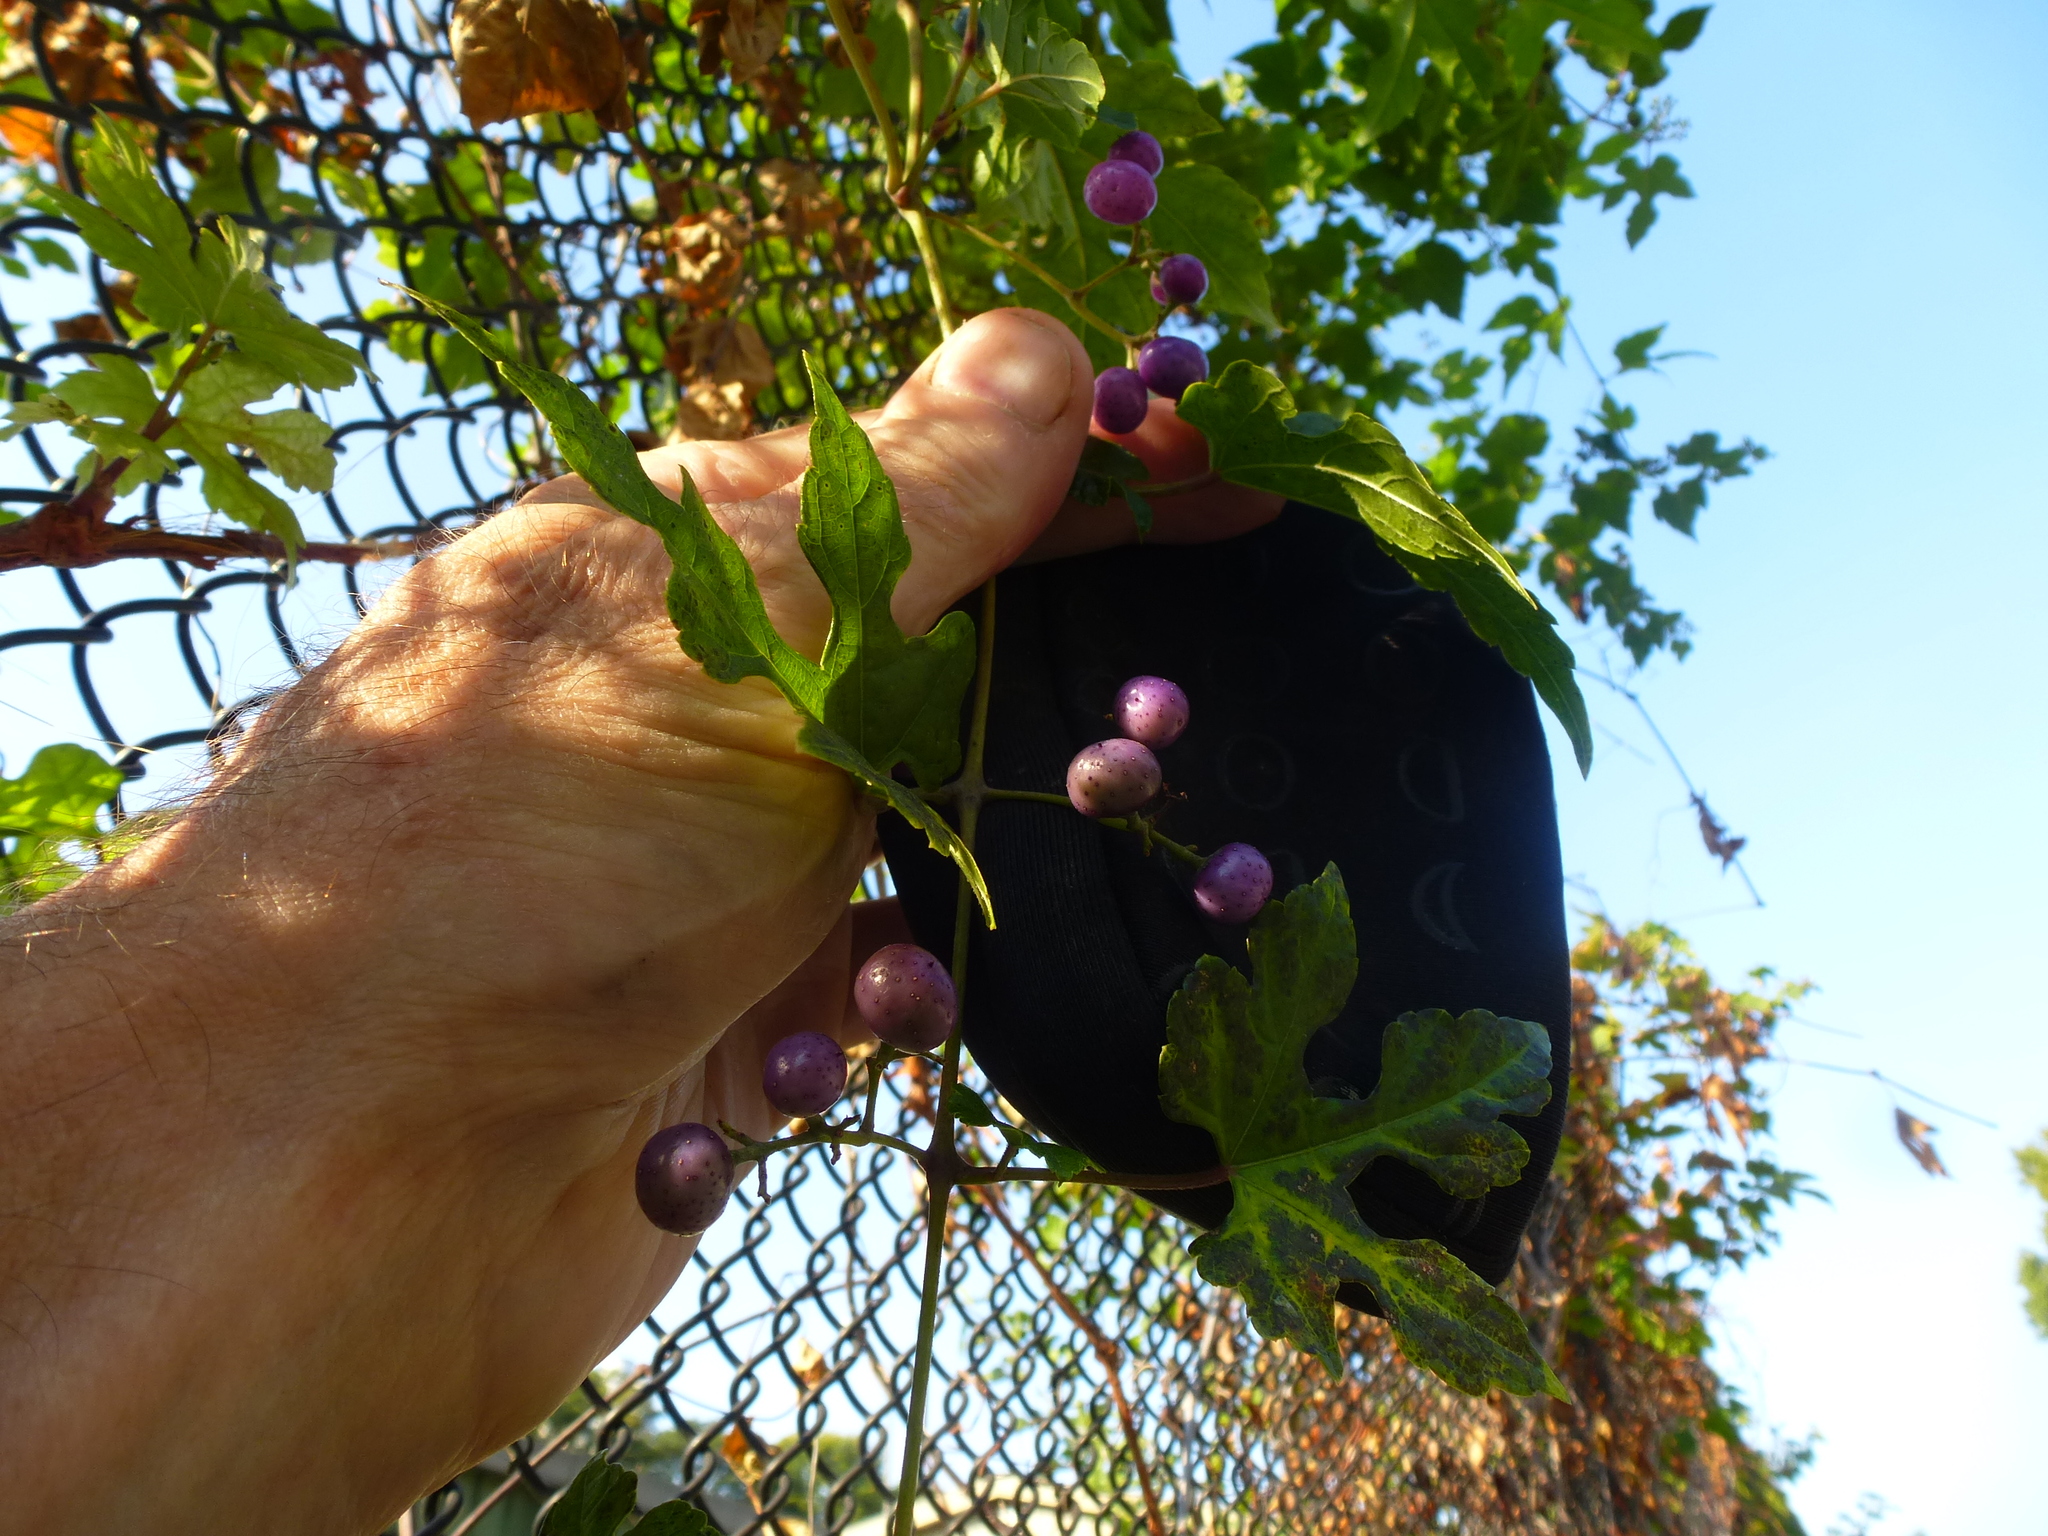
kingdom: Plantae
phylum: Tracheophyta
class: Magnoliopsida
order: Vitales
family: Vitaceae
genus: Ampelopsis
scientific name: Ampelopsis glandulosa
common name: Amur peppervine
